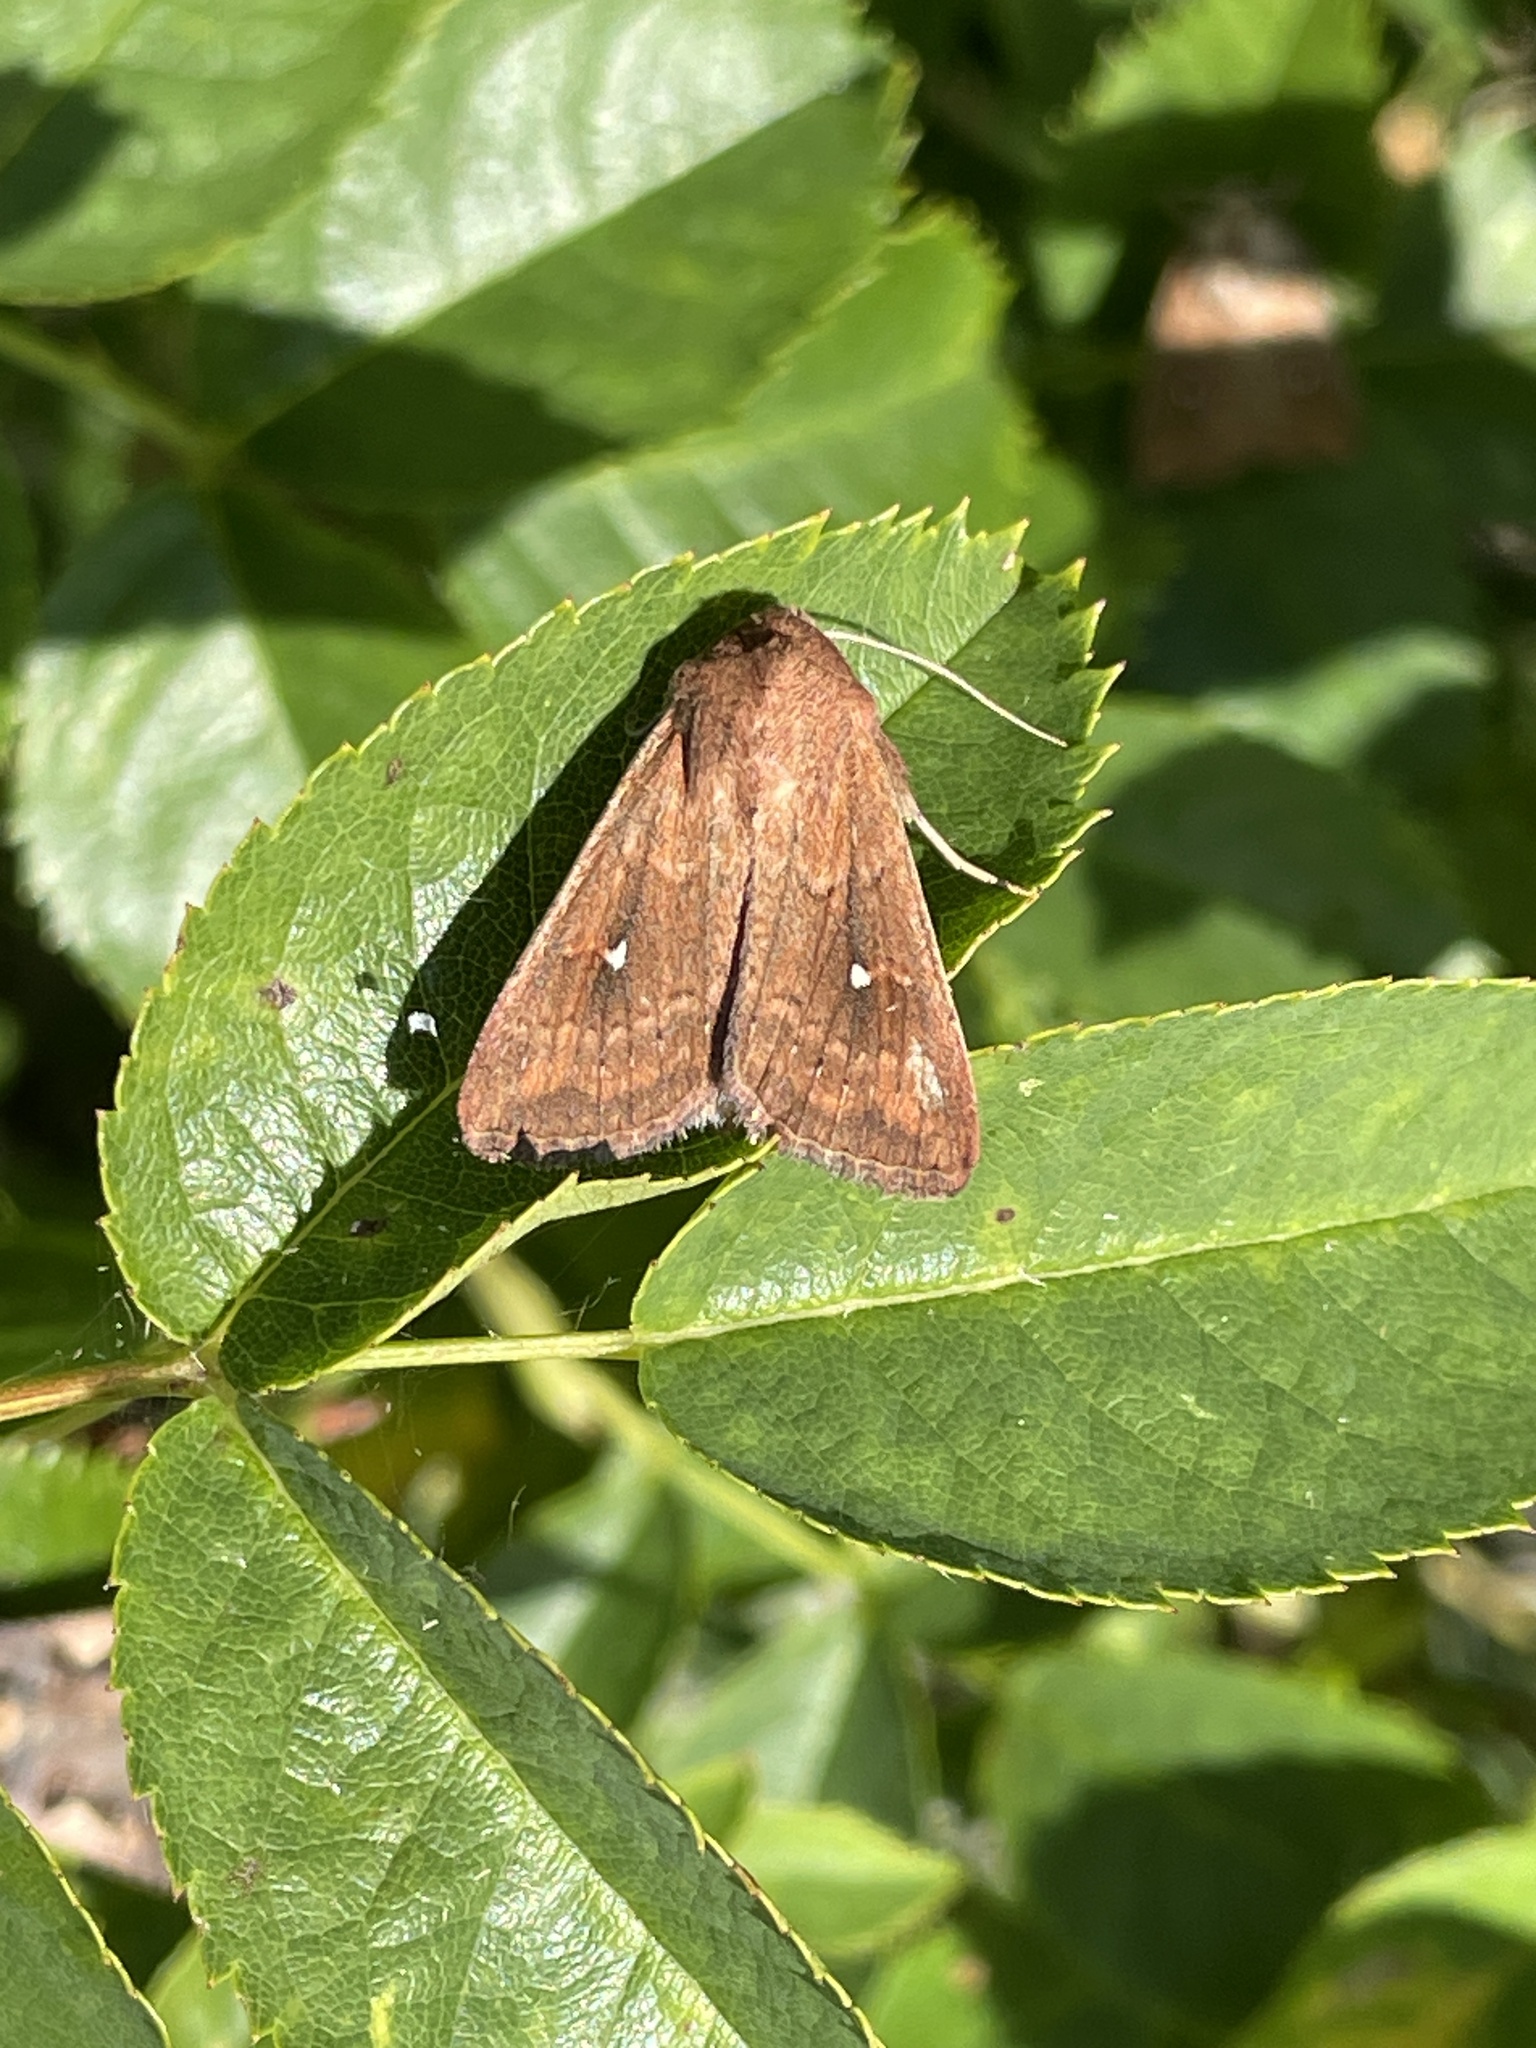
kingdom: Animalia
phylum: Arthropoda
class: Insecta
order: Lepidoptera
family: Noctuidae
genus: Mythimna
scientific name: Mythimna albipuncta
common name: White-point
